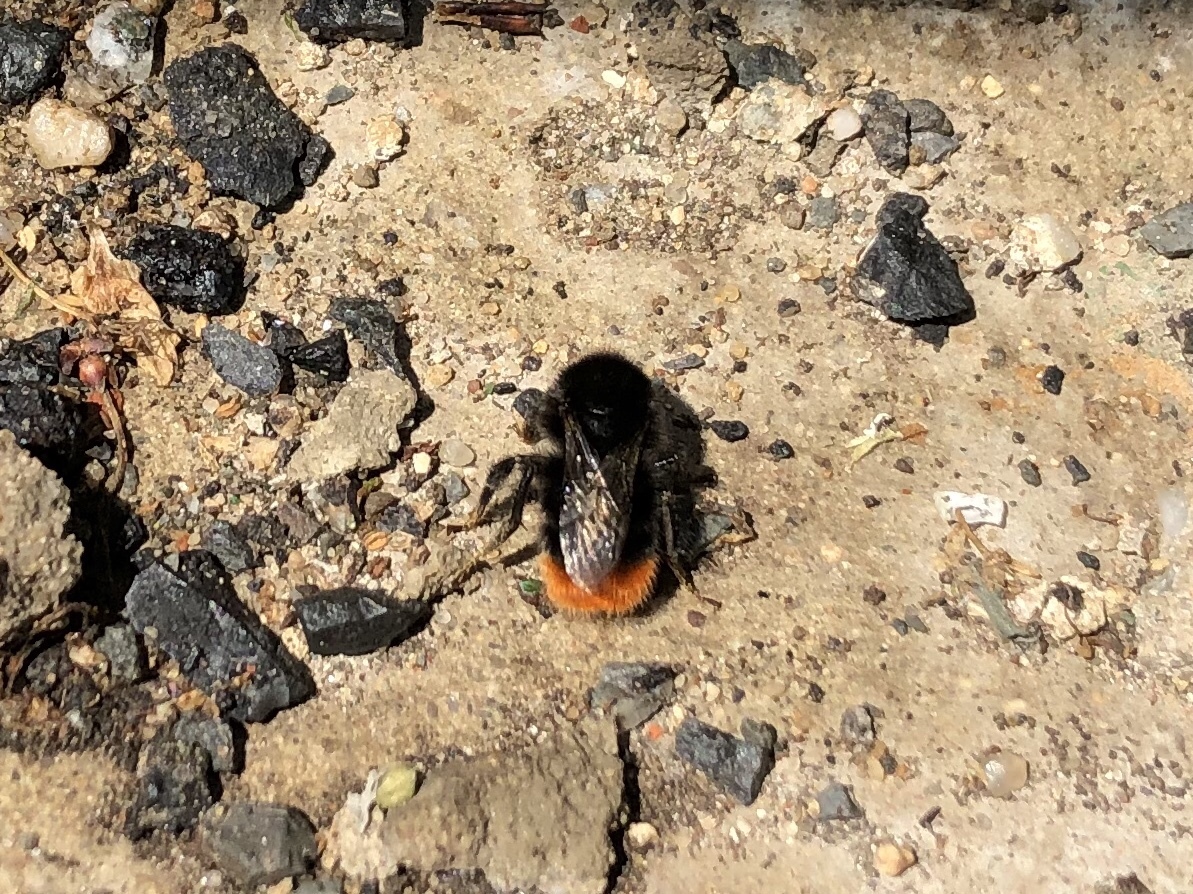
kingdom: Animalia
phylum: Arthropoda
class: Insecta
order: Hymenoptera
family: Apidae
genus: Bombus
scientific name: Bombus lapidarius
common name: Large red-tailed humble-bee
